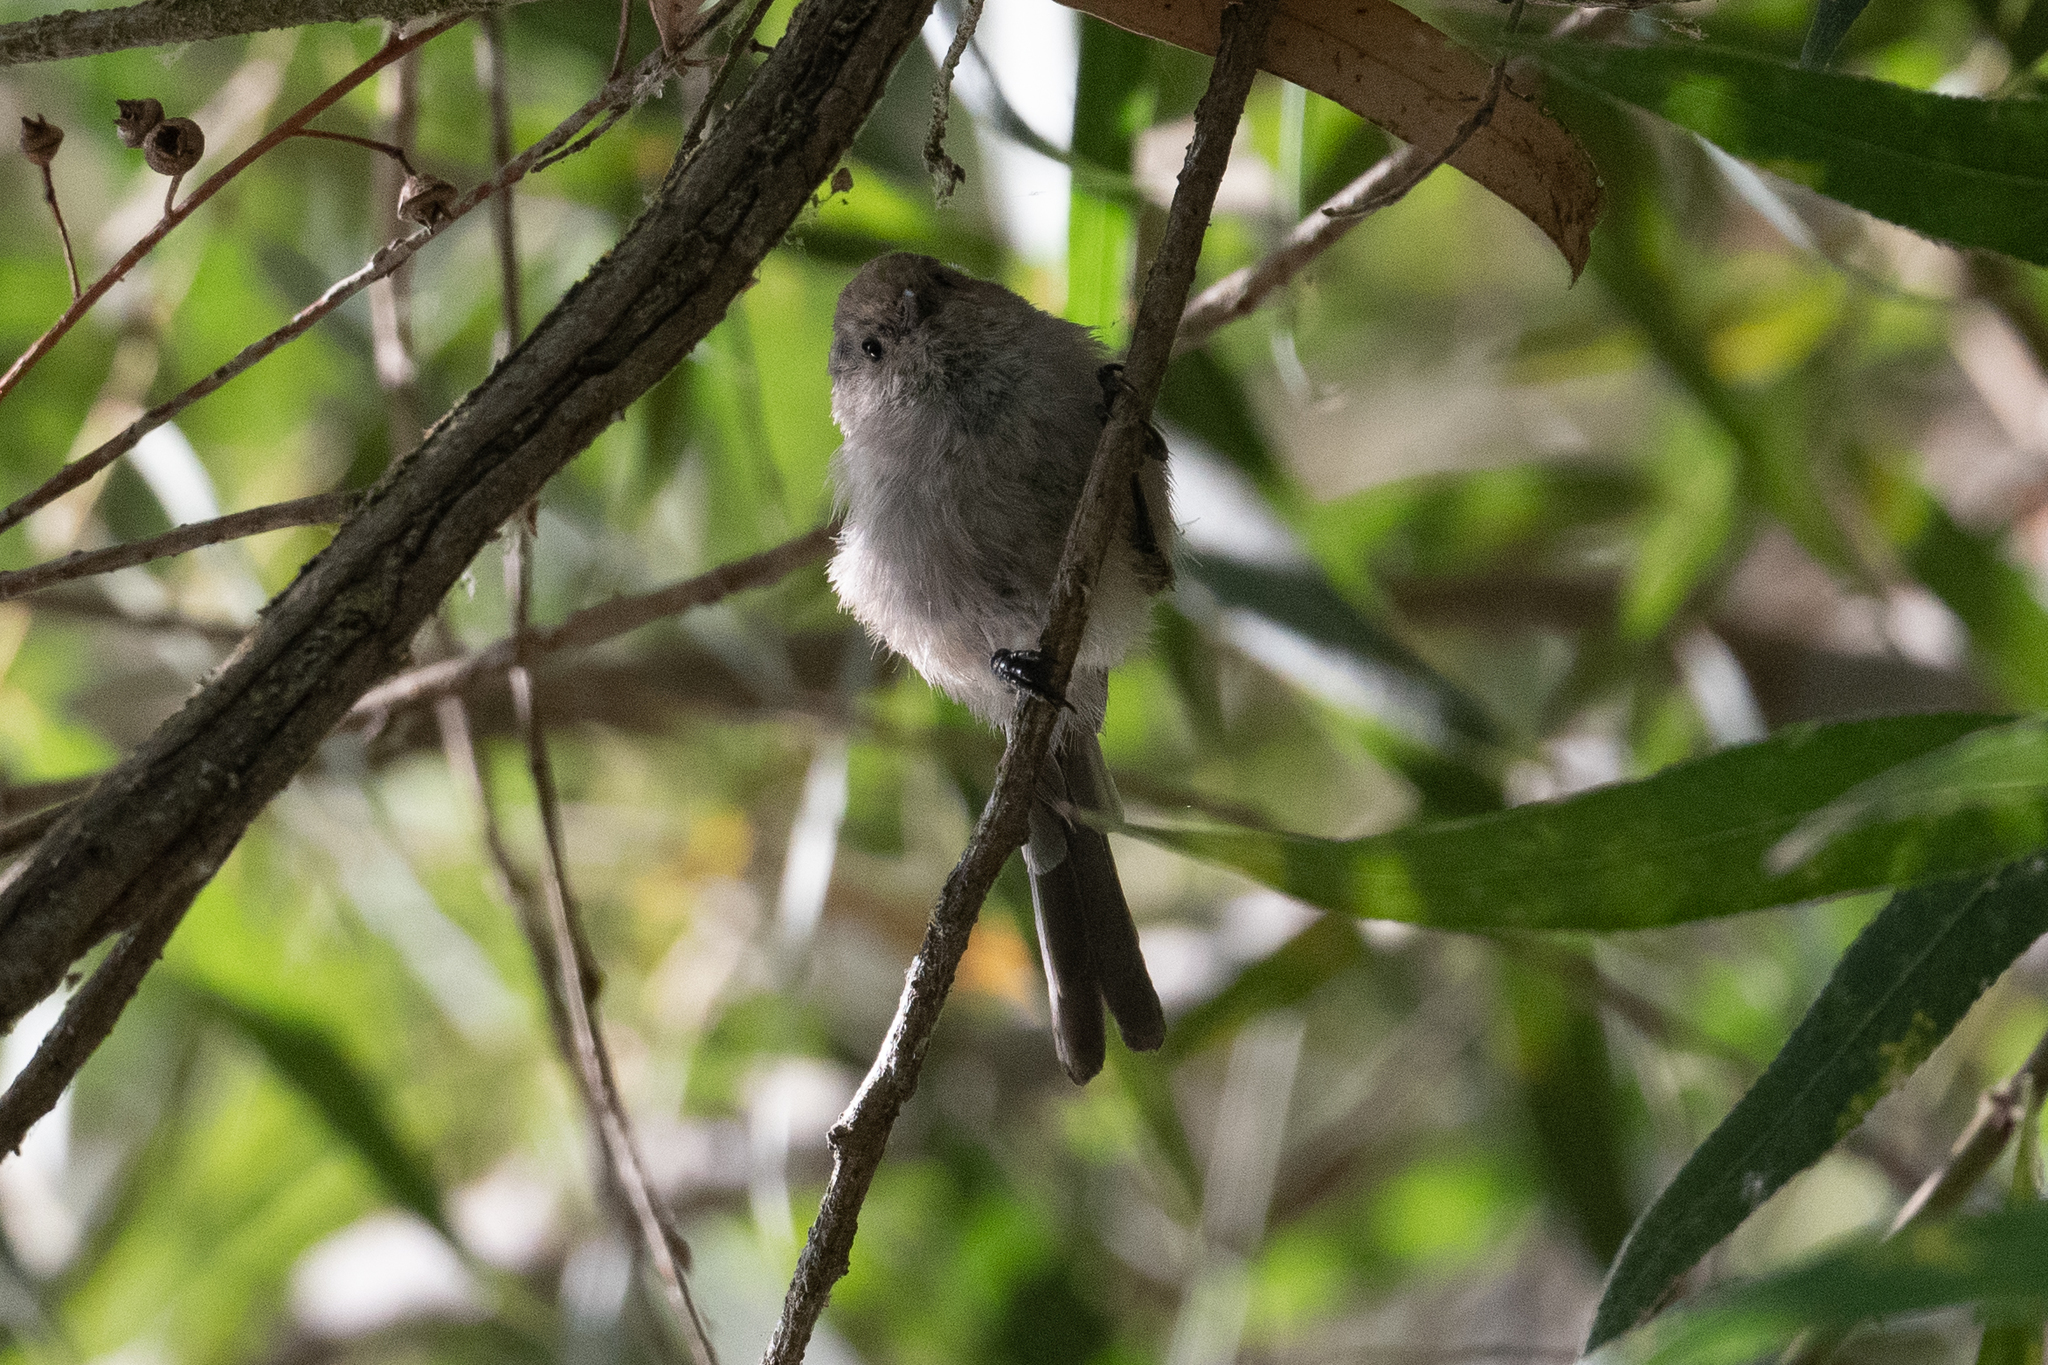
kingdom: Animalia
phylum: Chordata
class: Aves
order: Passeriformes
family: Aegithalidae
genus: Psaltriparus
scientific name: Psaltriparus minimus
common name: American bushtit
